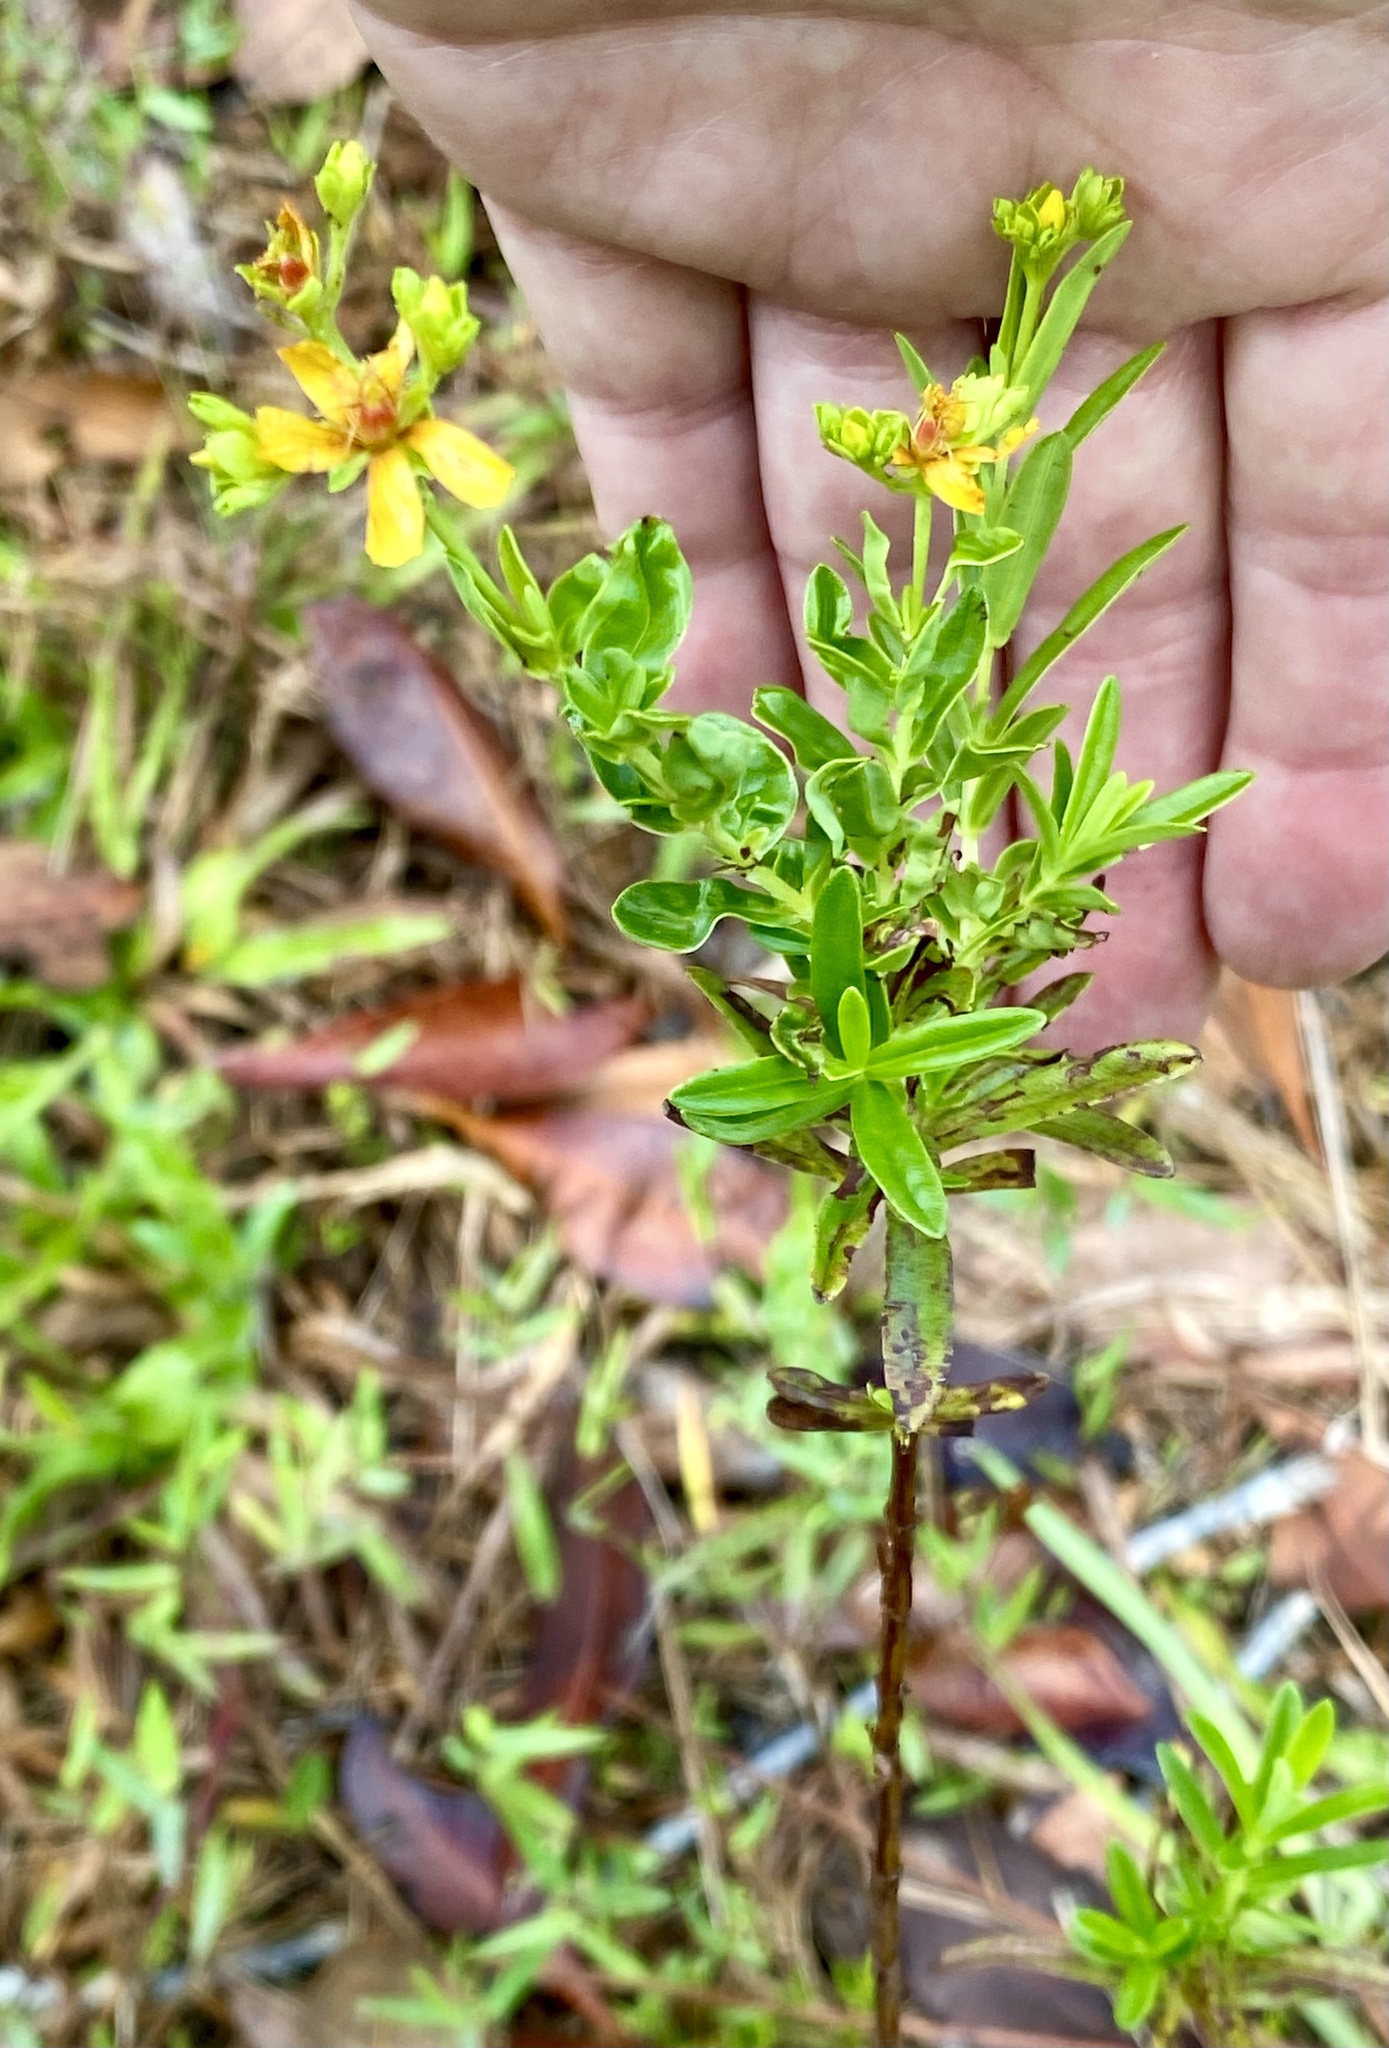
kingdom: Plantae
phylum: Tracheophyta
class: Magnoliopsida
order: Malpighiales
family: Hypericaceae
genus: Hypericum
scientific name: Hypericum cistifolium
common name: Round-pod st. john's-wort
